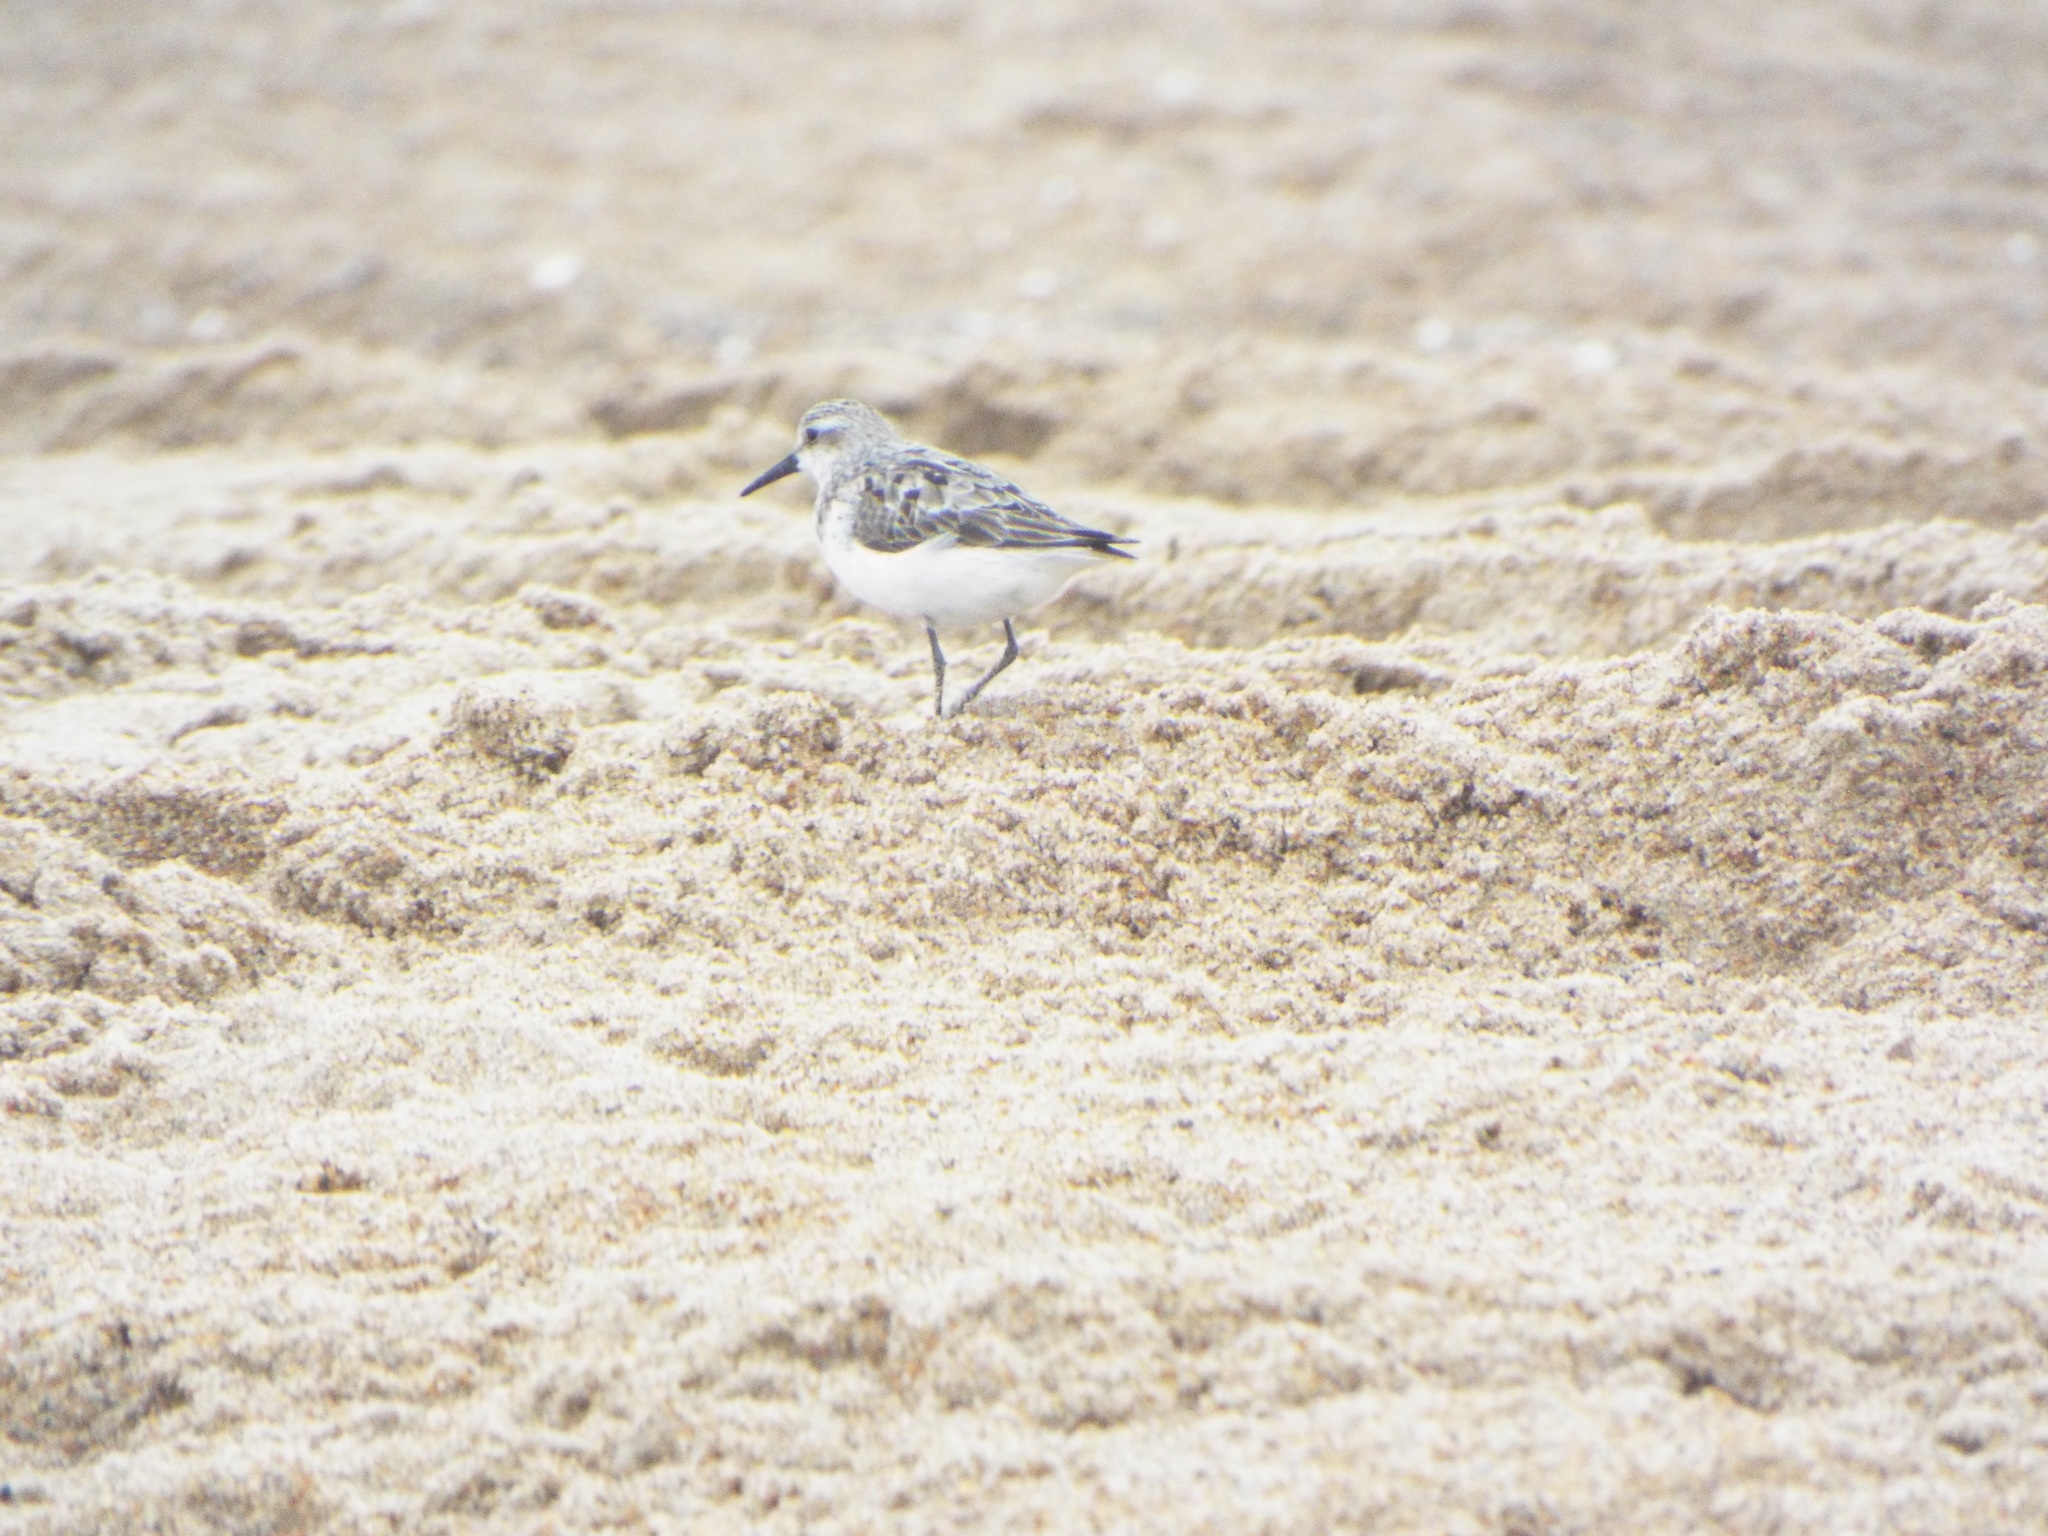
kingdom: Animalia
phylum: Chordata
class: Aves
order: Charadriiformes
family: Scolopacidae
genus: Calidris
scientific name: Calidris alba
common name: Sanderling
